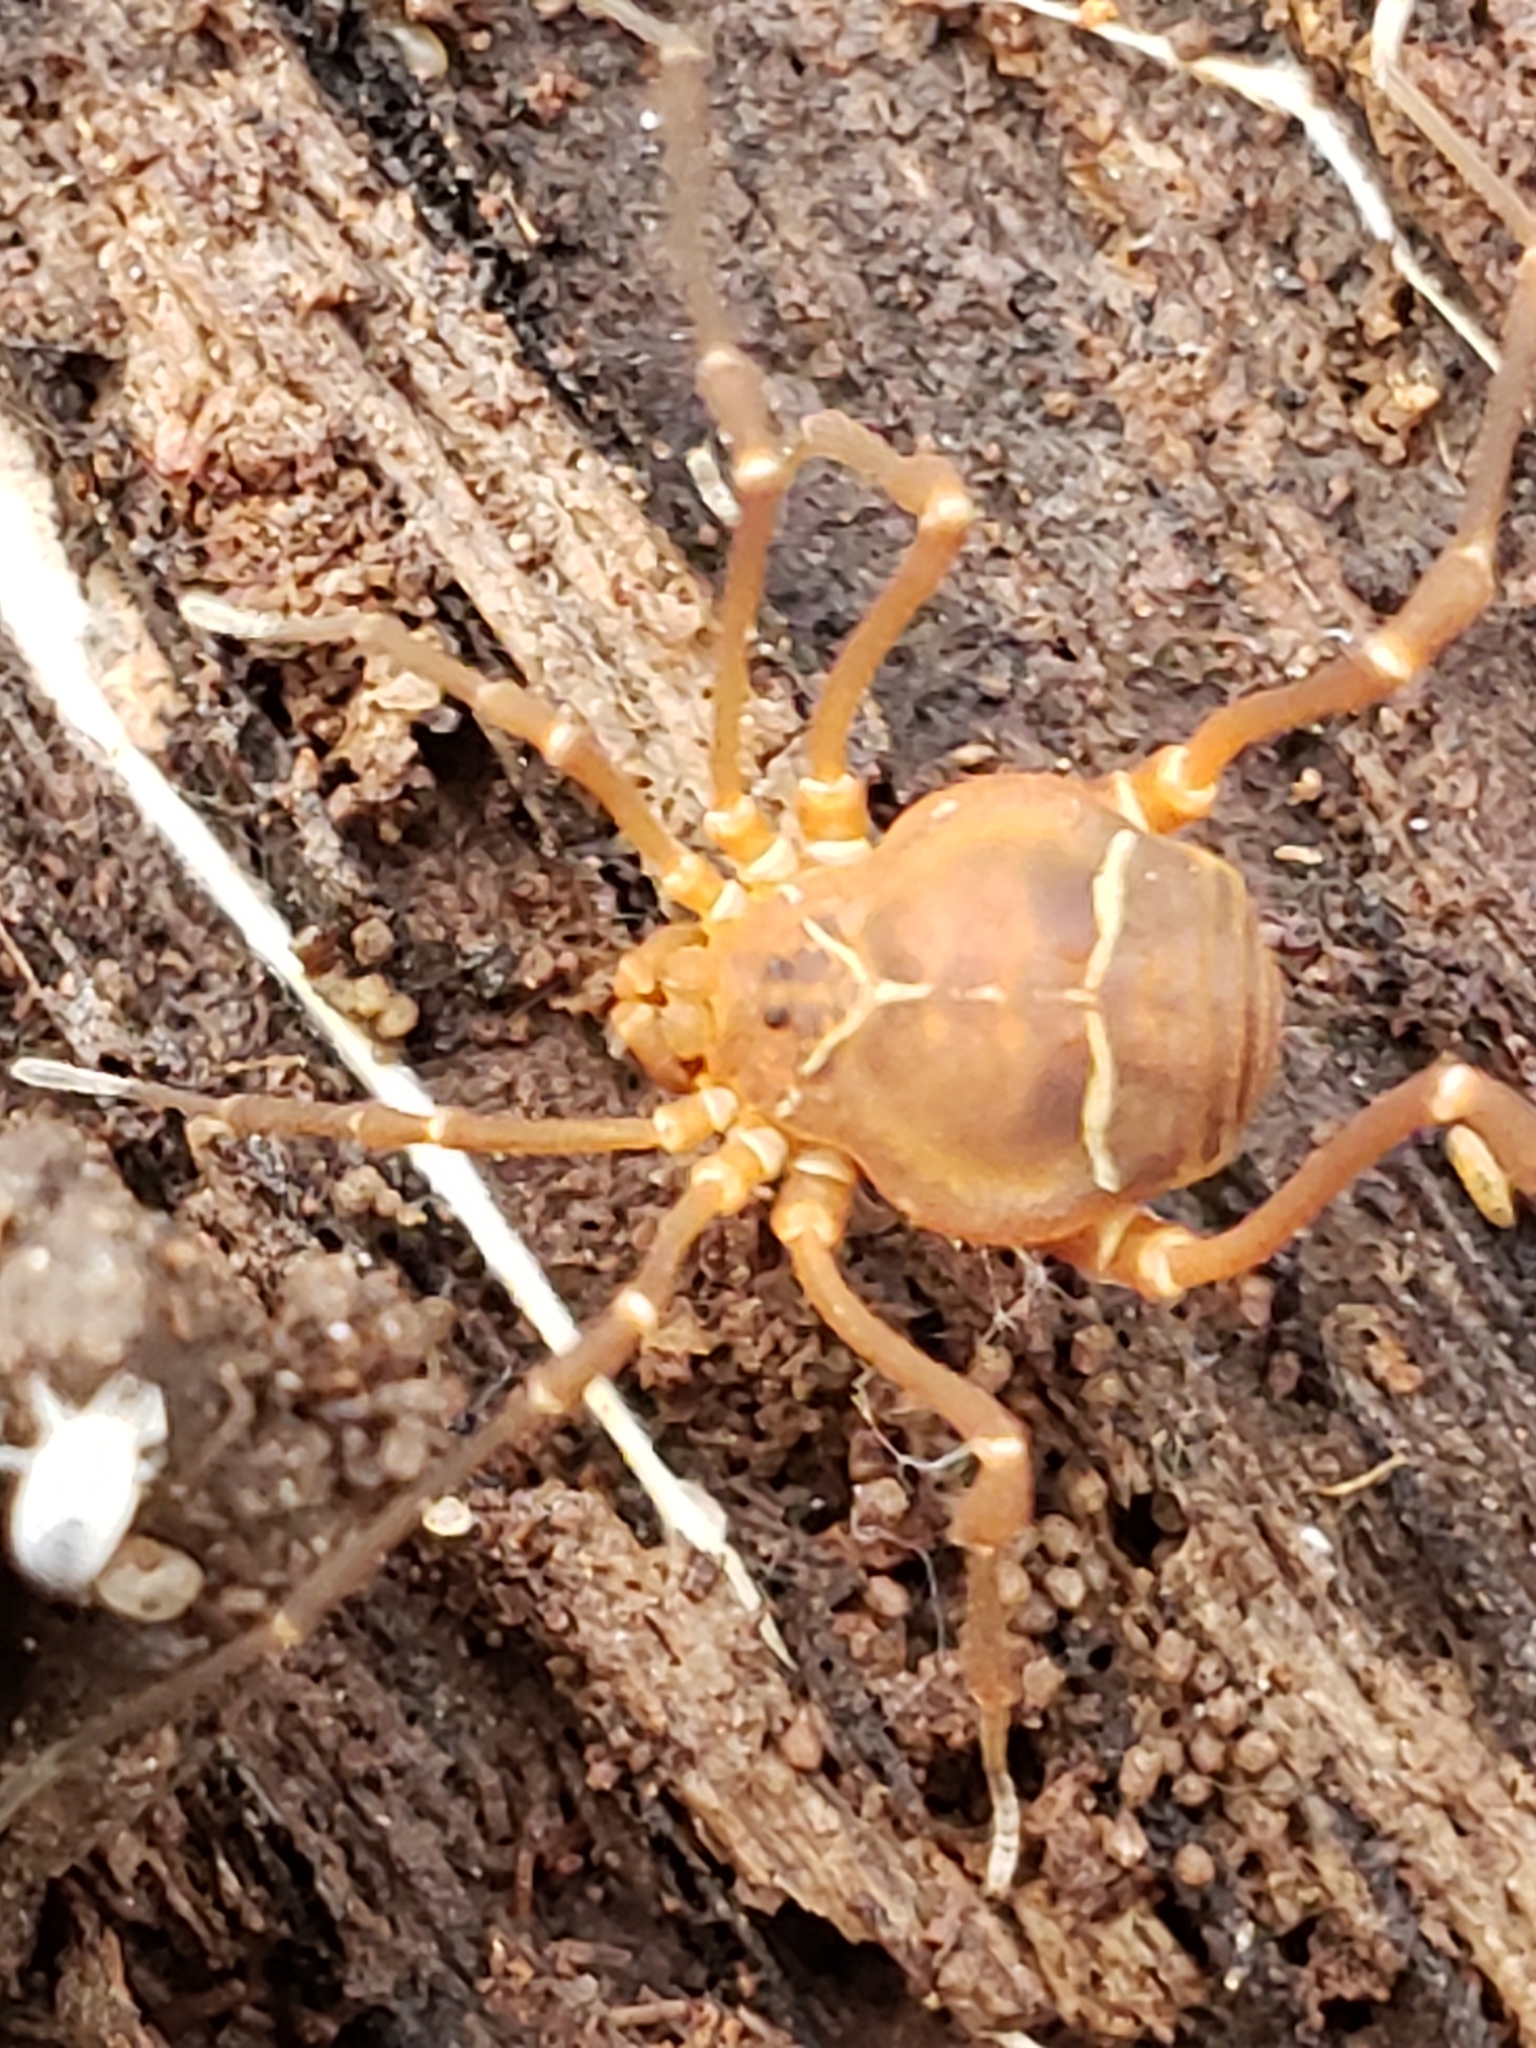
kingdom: Animalia
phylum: Arthropoda
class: Arachnida
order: Opiliones
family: Cosmetidae
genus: Libitioides
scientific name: Libitioides sayi
